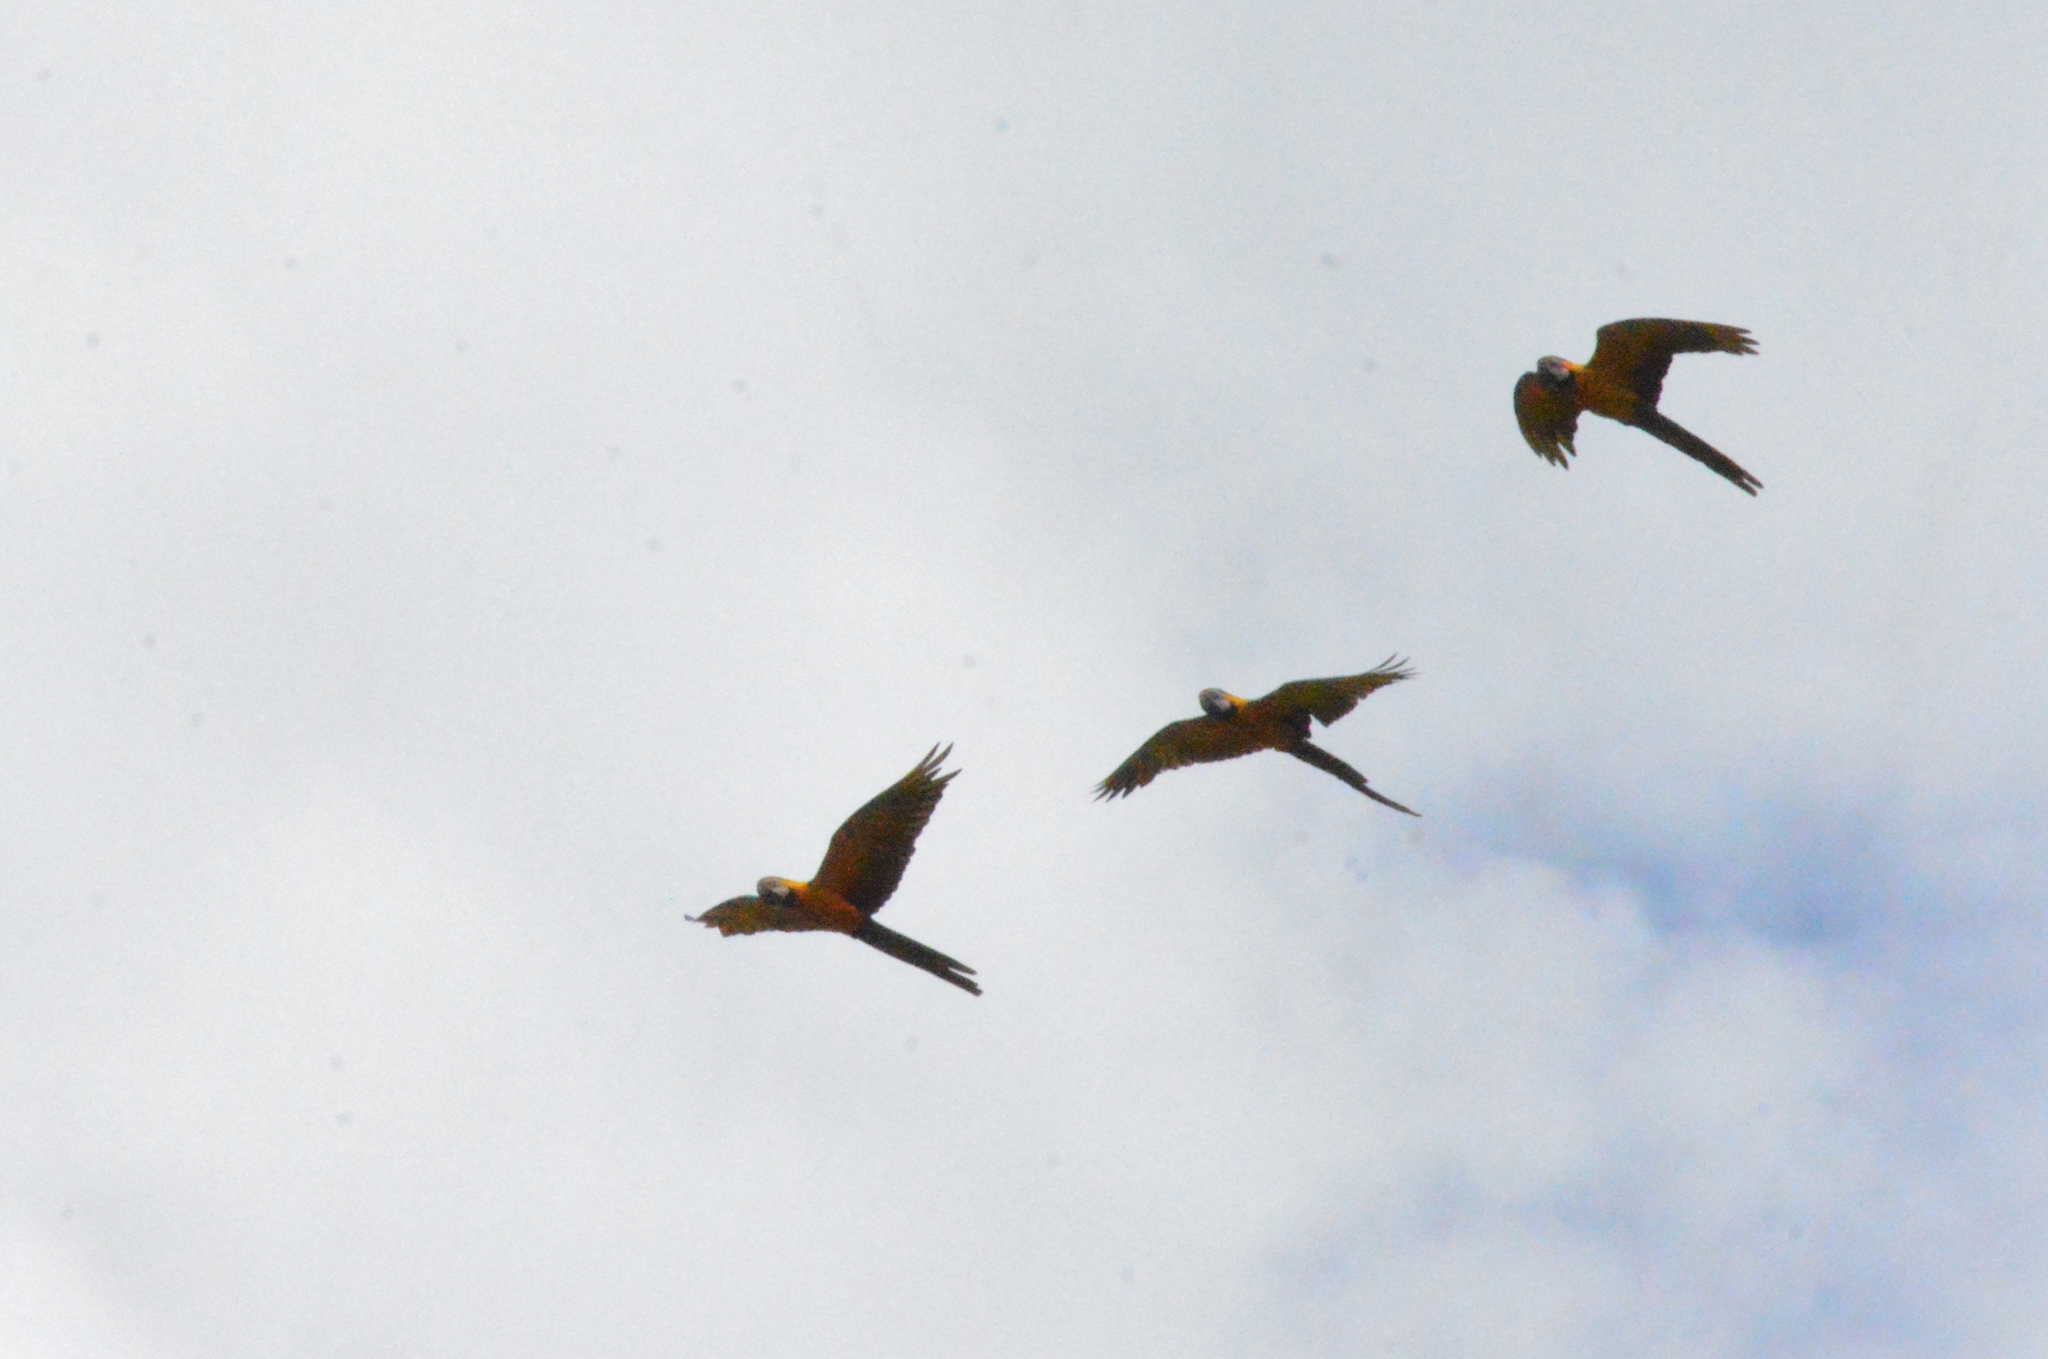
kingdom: Animalia
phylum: Chordata
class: Aves
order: Psittaciformes
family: Psittacidae
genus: Ara
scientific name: Ara ararauna
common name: Blue-and-yellow macaw
